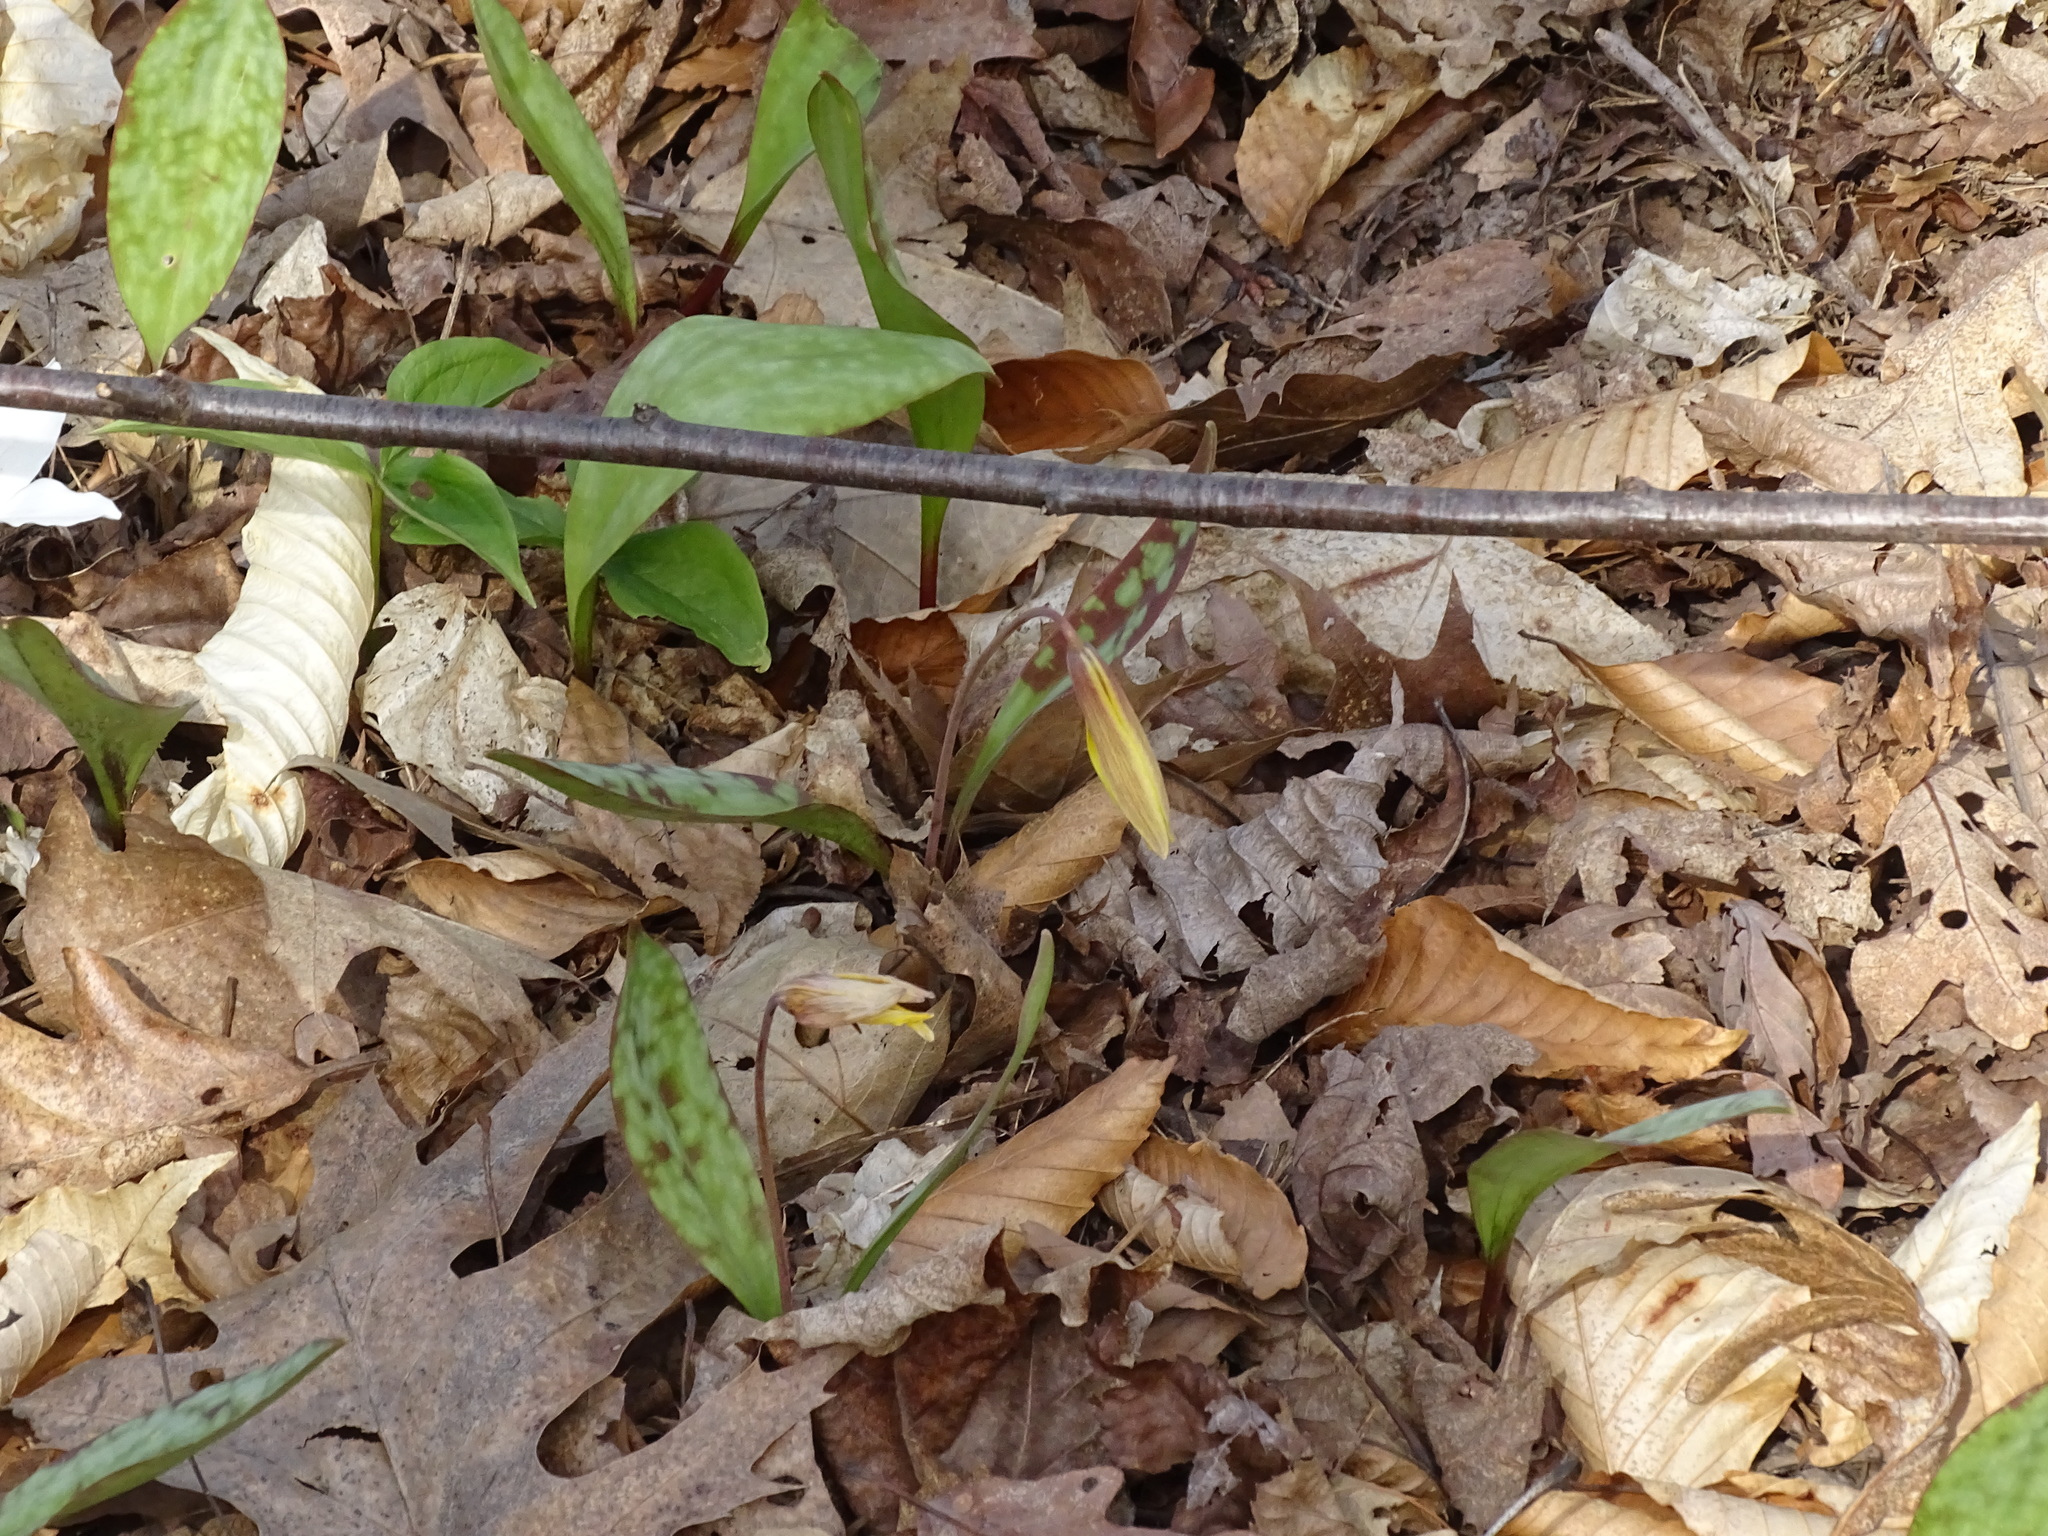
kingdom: Plantae
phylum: Tracheophyta
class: Liliopsida
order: Liliales
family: Liliaceae
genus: Erythronium
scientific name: Erythronium americanum
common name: Yellow adder's-tongue
